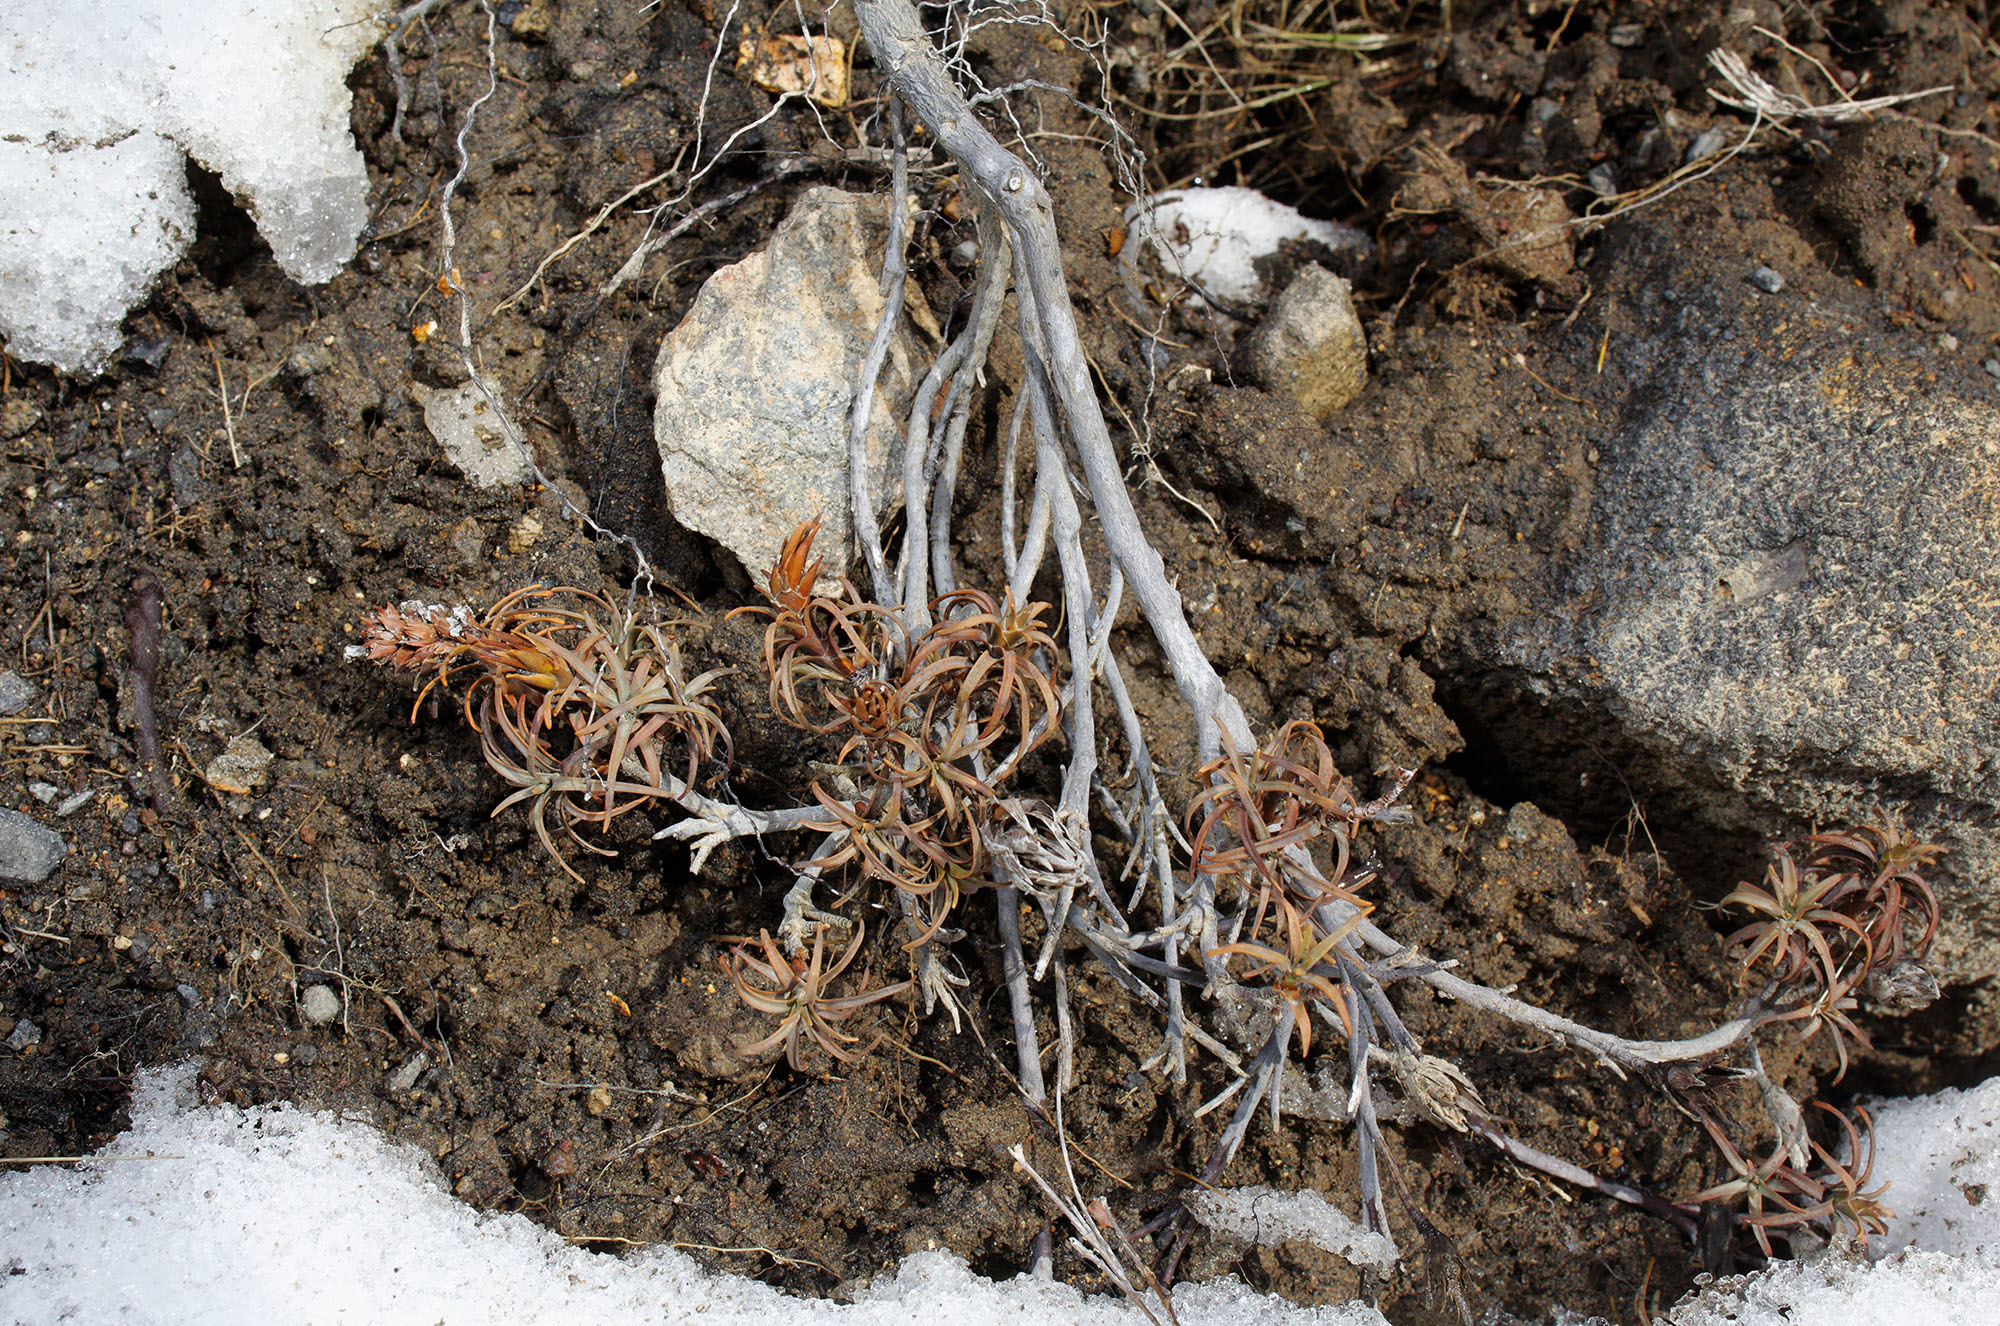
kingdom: Plantae
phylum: Tracheophyta
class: Magnoliopsida
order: Ericales
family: Ericaceae
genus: Dracophyllum
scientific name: Dracophyllum recurvum
